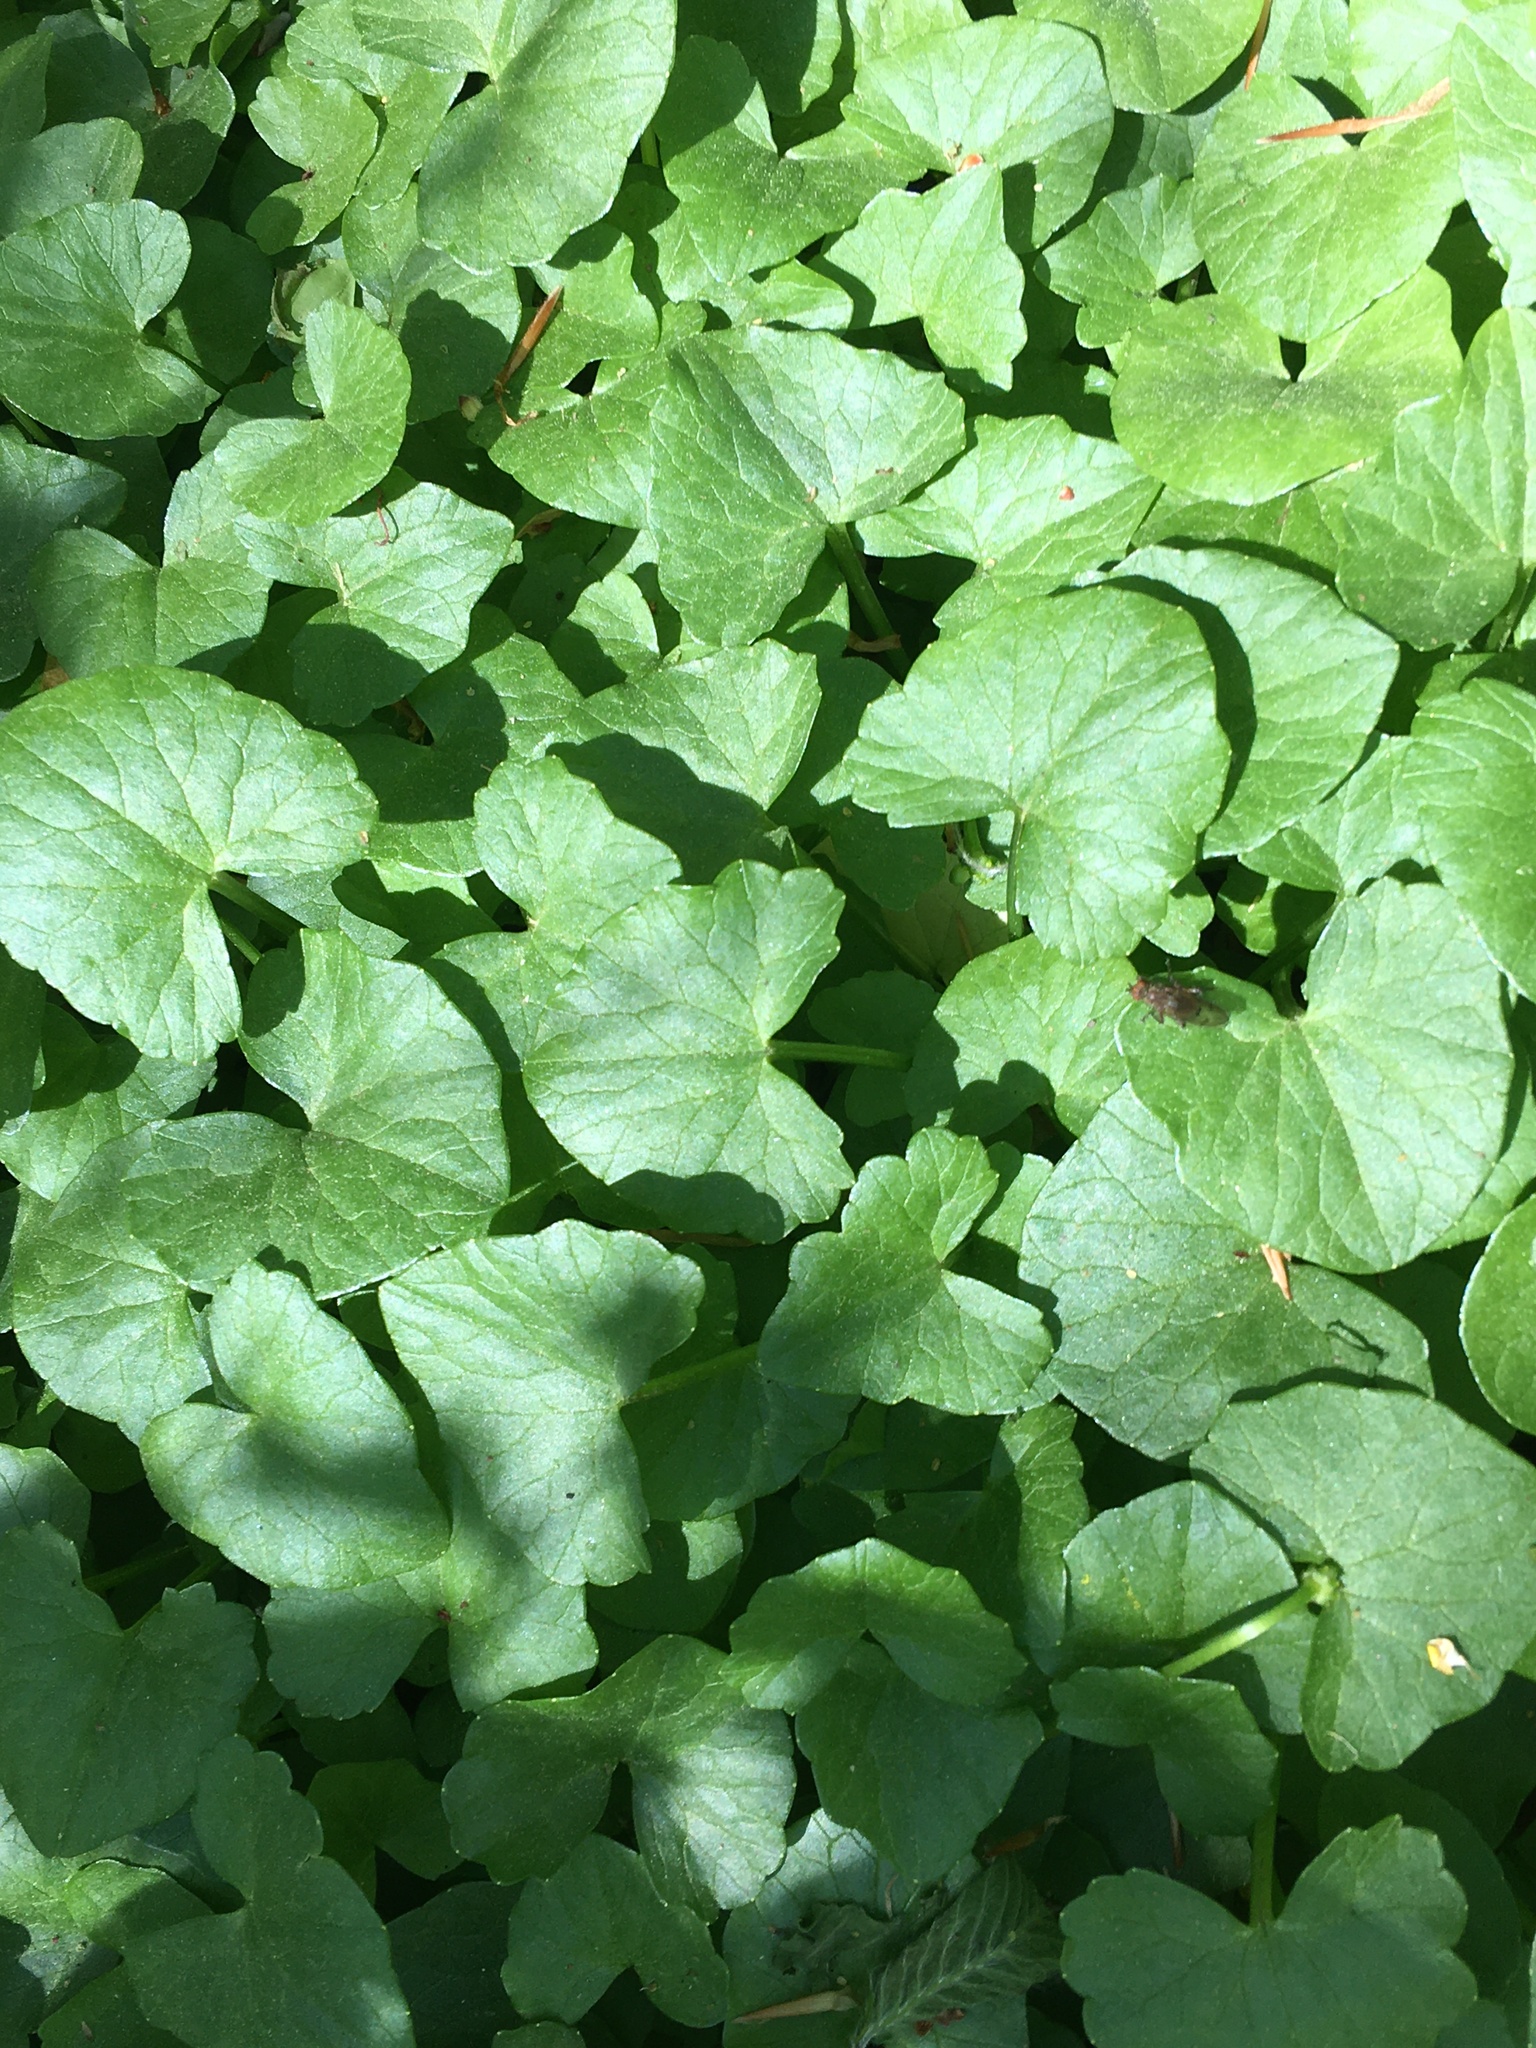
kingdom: Plantae
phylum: Tracheophyta
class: Magnoliopsida
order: Ranunculales
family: Ranunculaceae
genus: Ficaria
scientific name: Ficaria verna
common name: Lesser celandine
